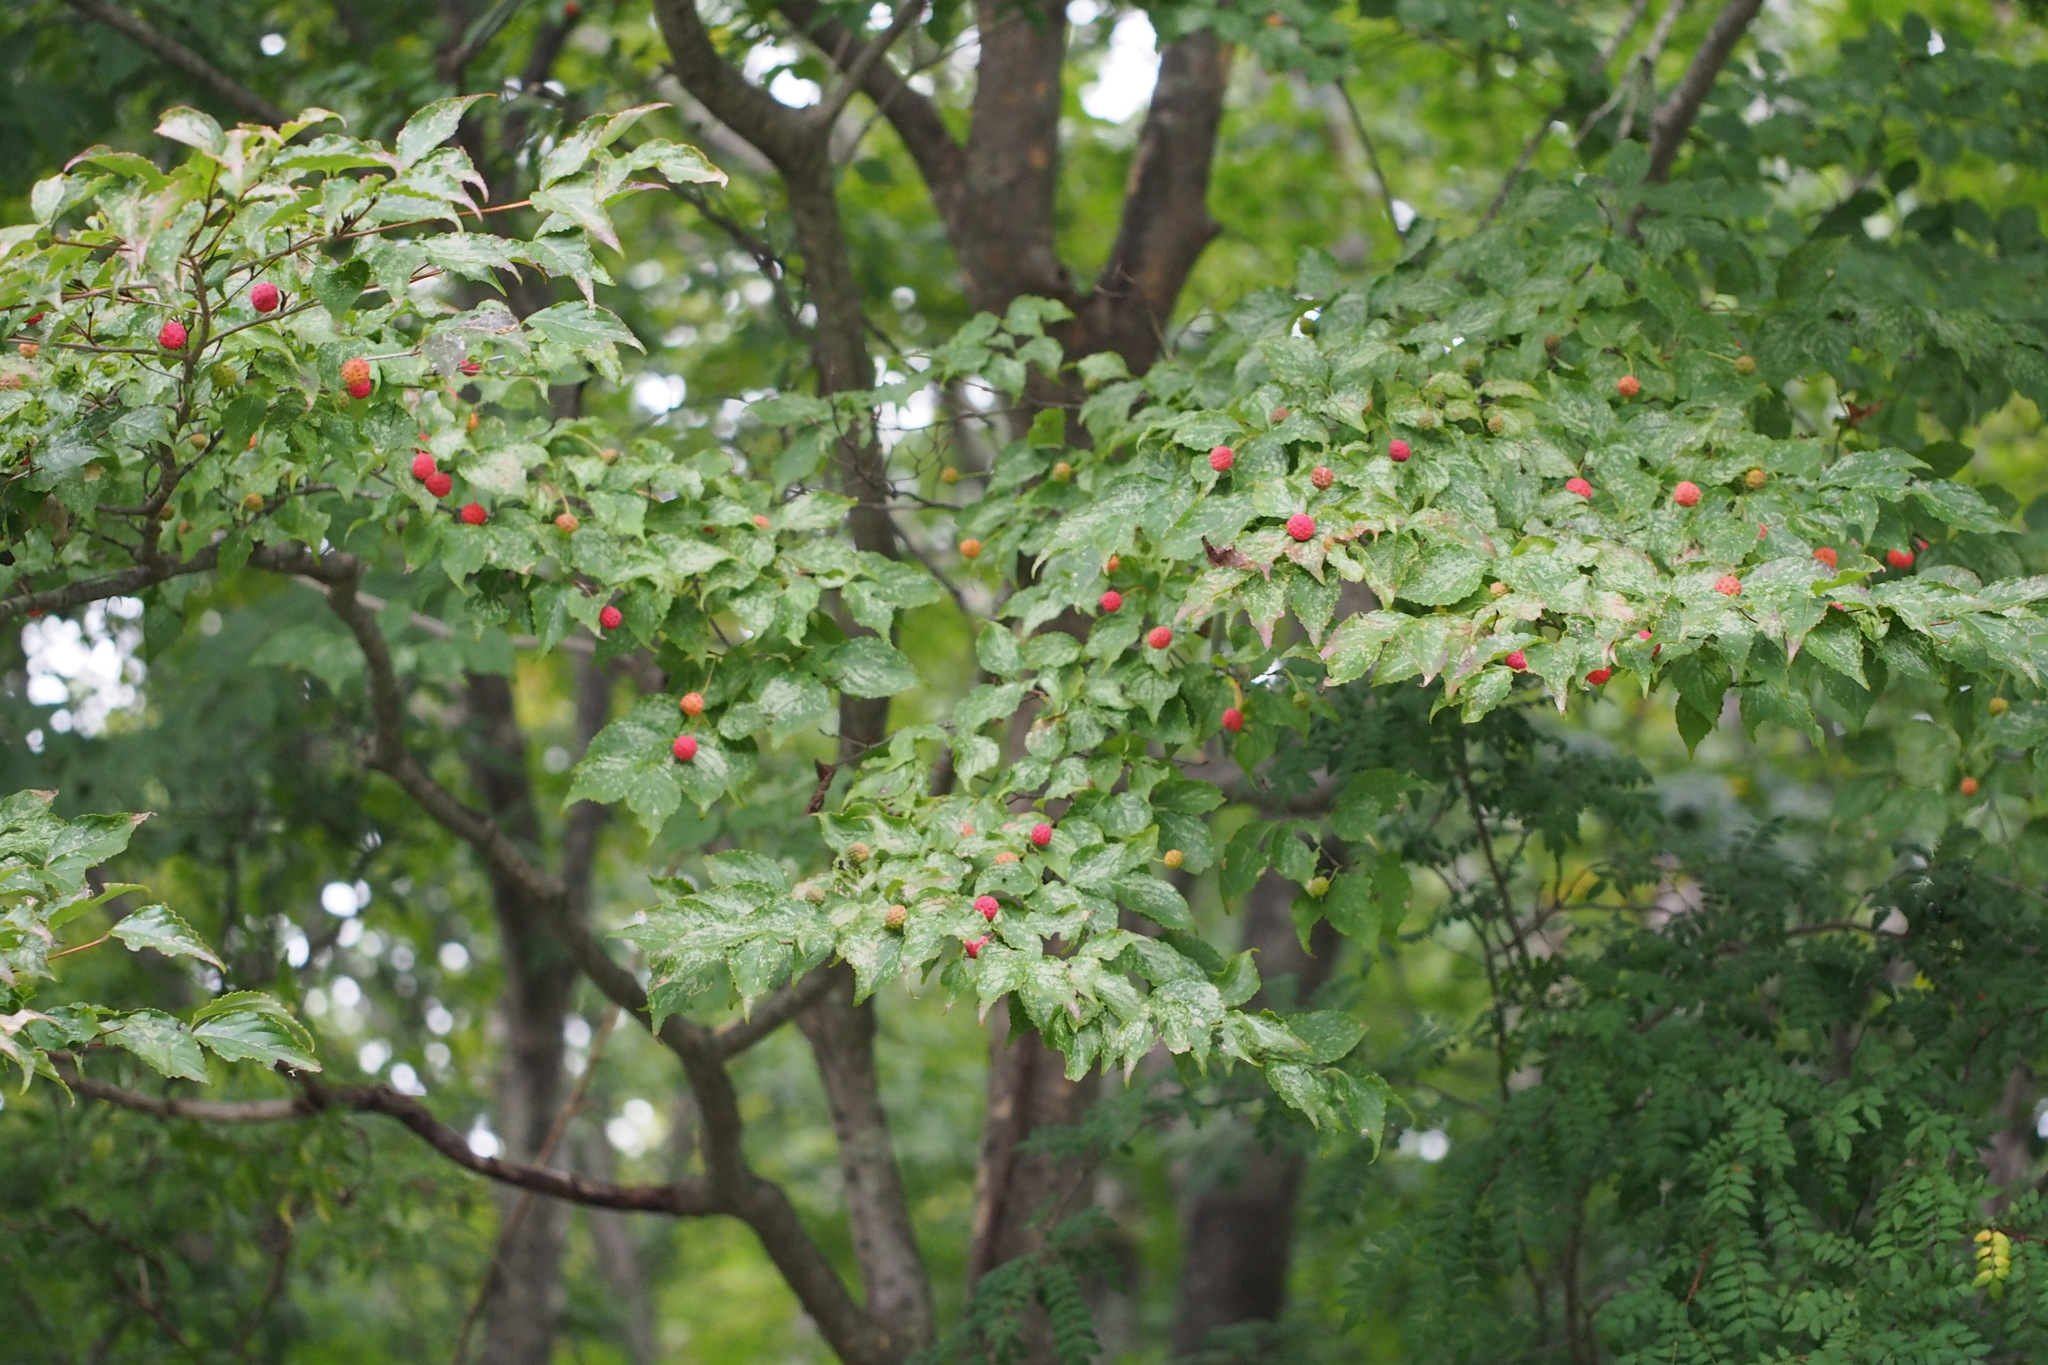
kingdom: Plantae
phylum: Tracheophyta
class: Magnoliopsida
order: Cornales
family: Cornaceae
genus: Cornus
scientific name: Cornus kousa
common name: Japanese dogwood
